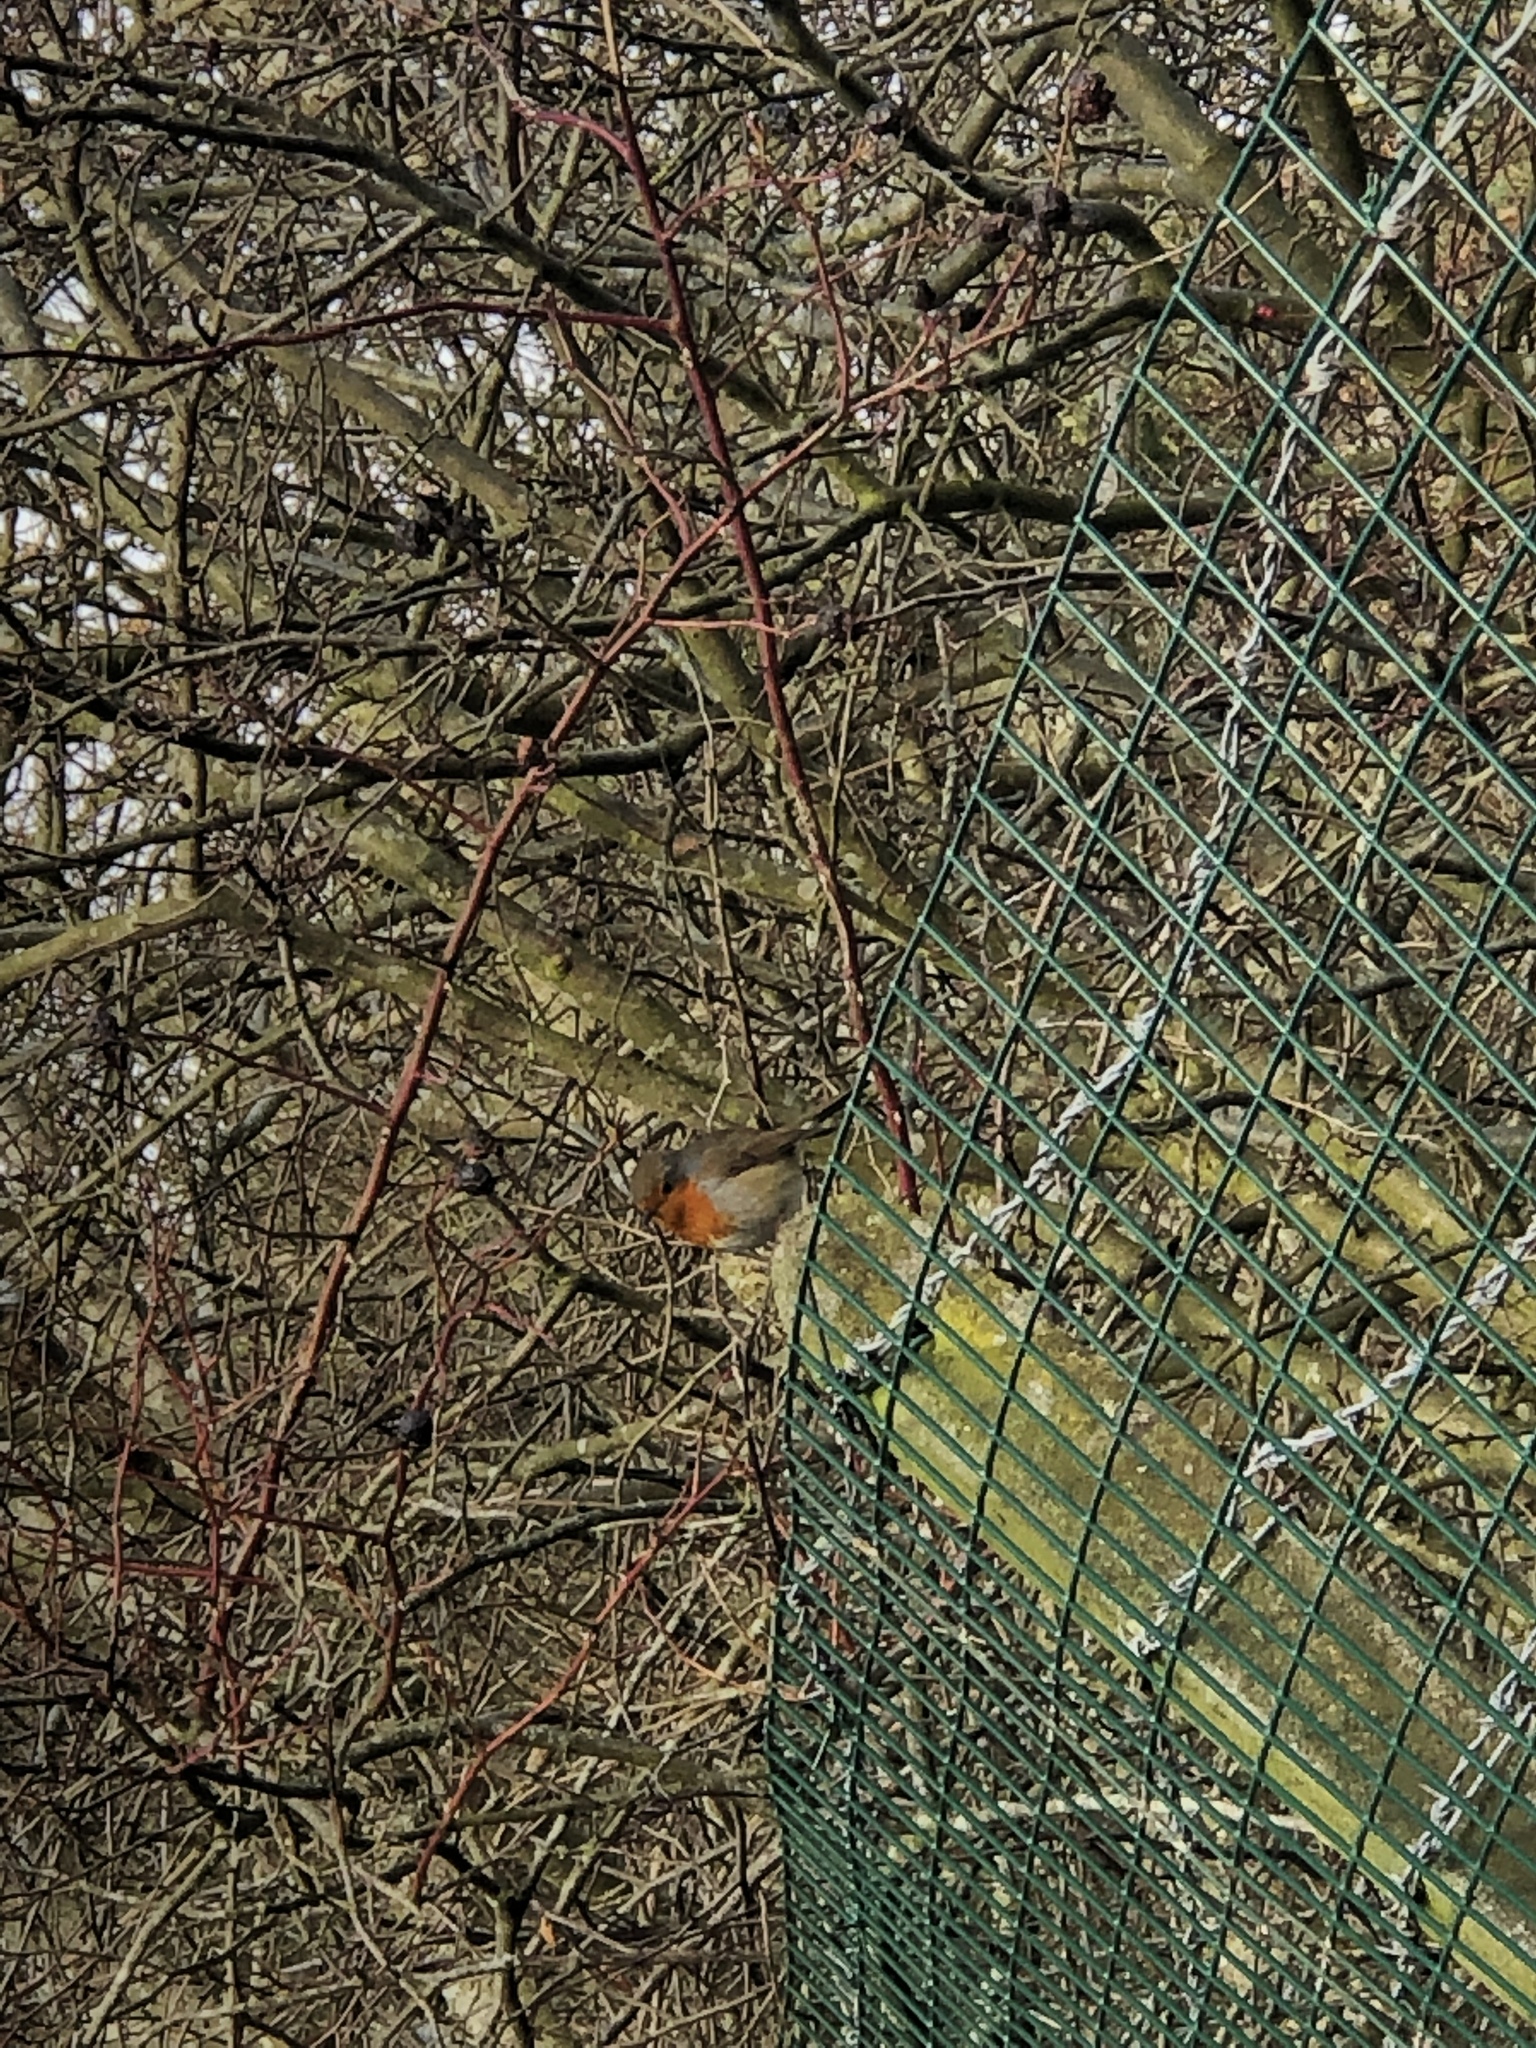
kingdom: Animalia
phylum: Chordata
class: Aves
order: Passeriformes
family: Muscicapidae
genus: Erithacus
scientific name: Erithacus rubecula
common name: European robin
